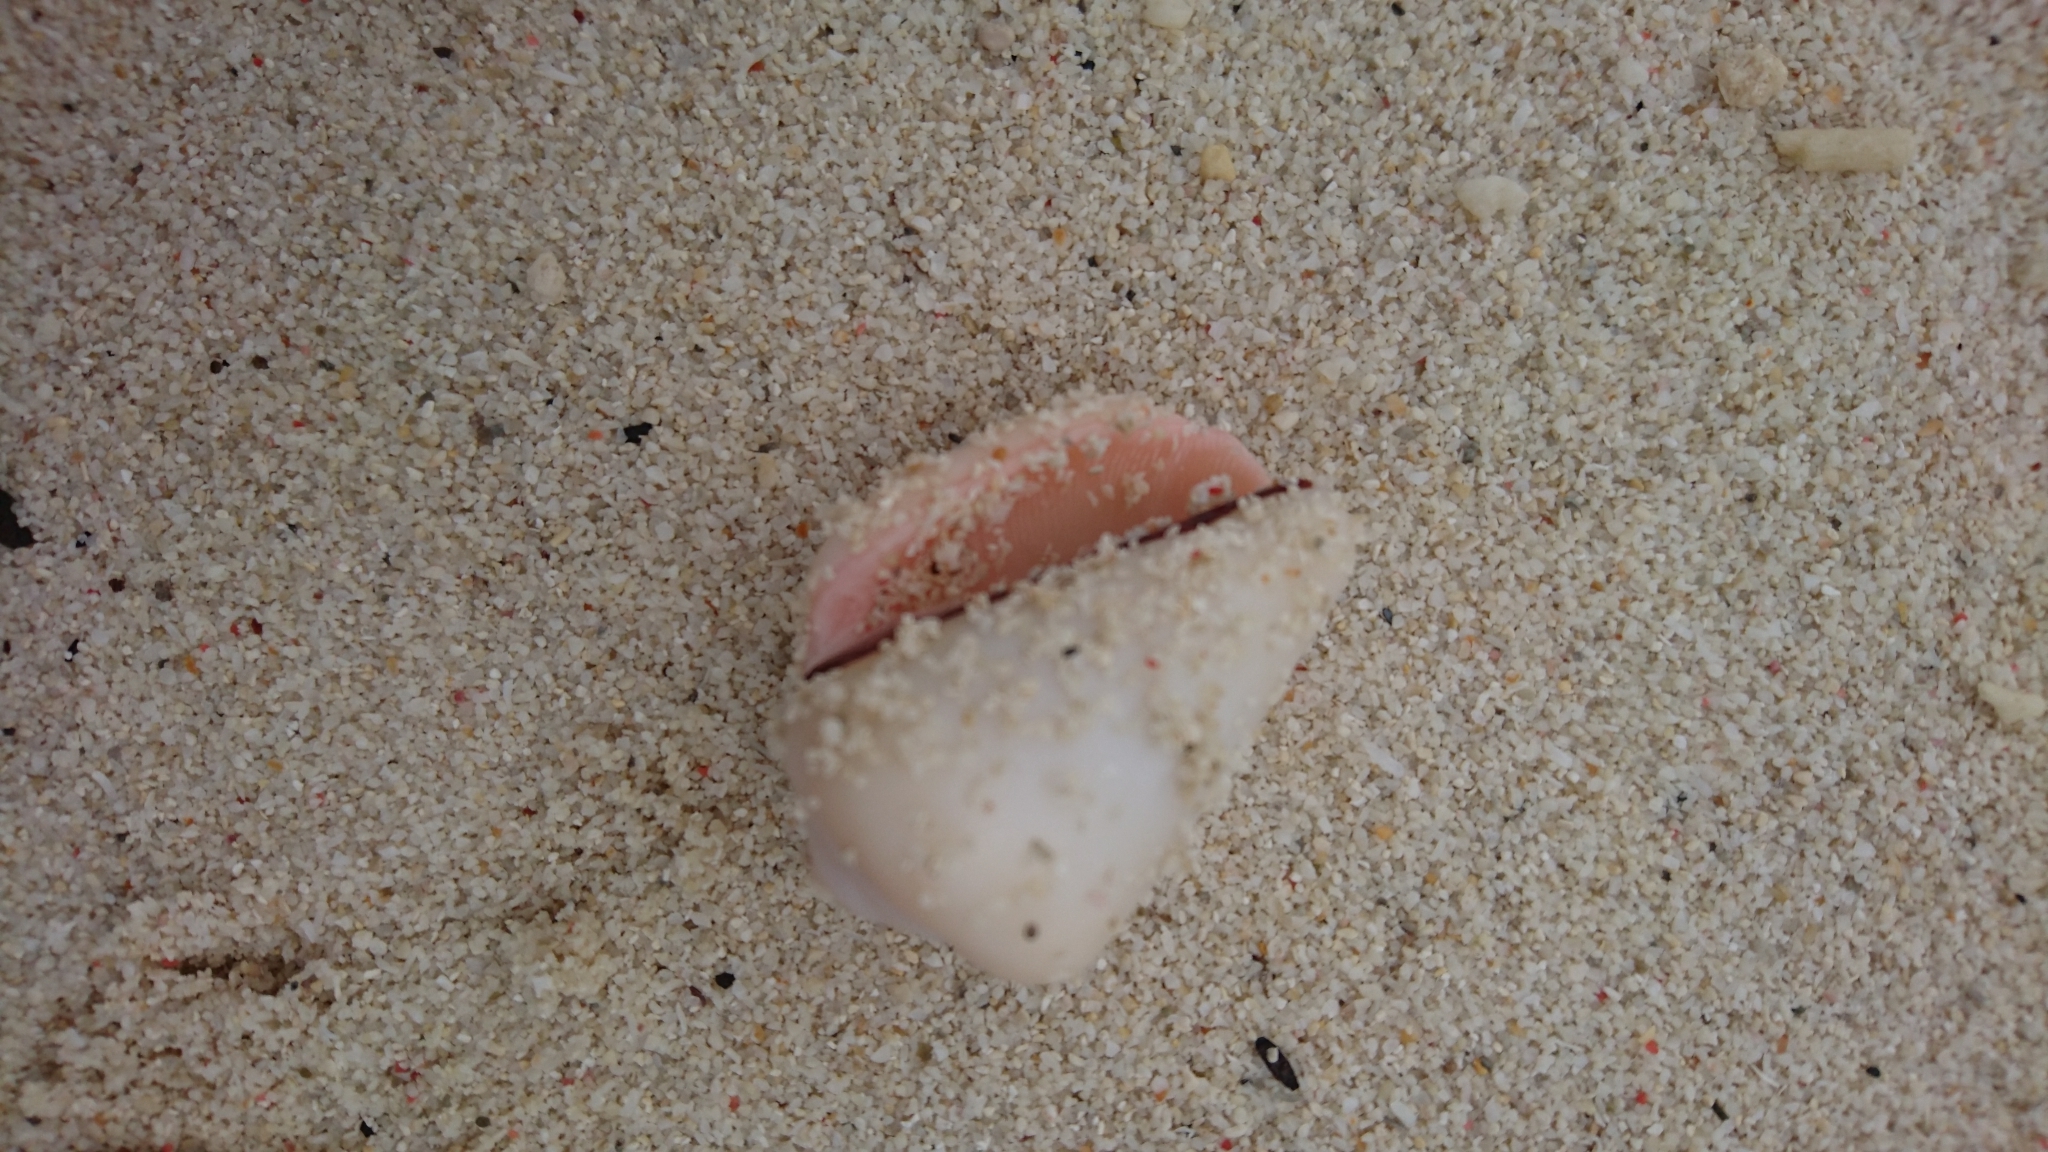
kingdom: Animalia
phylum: Mollusca
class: Gastropoda
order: Littorinimorpha
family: Strombidae
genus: Conomurex
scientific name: Conomurex luhuanus
